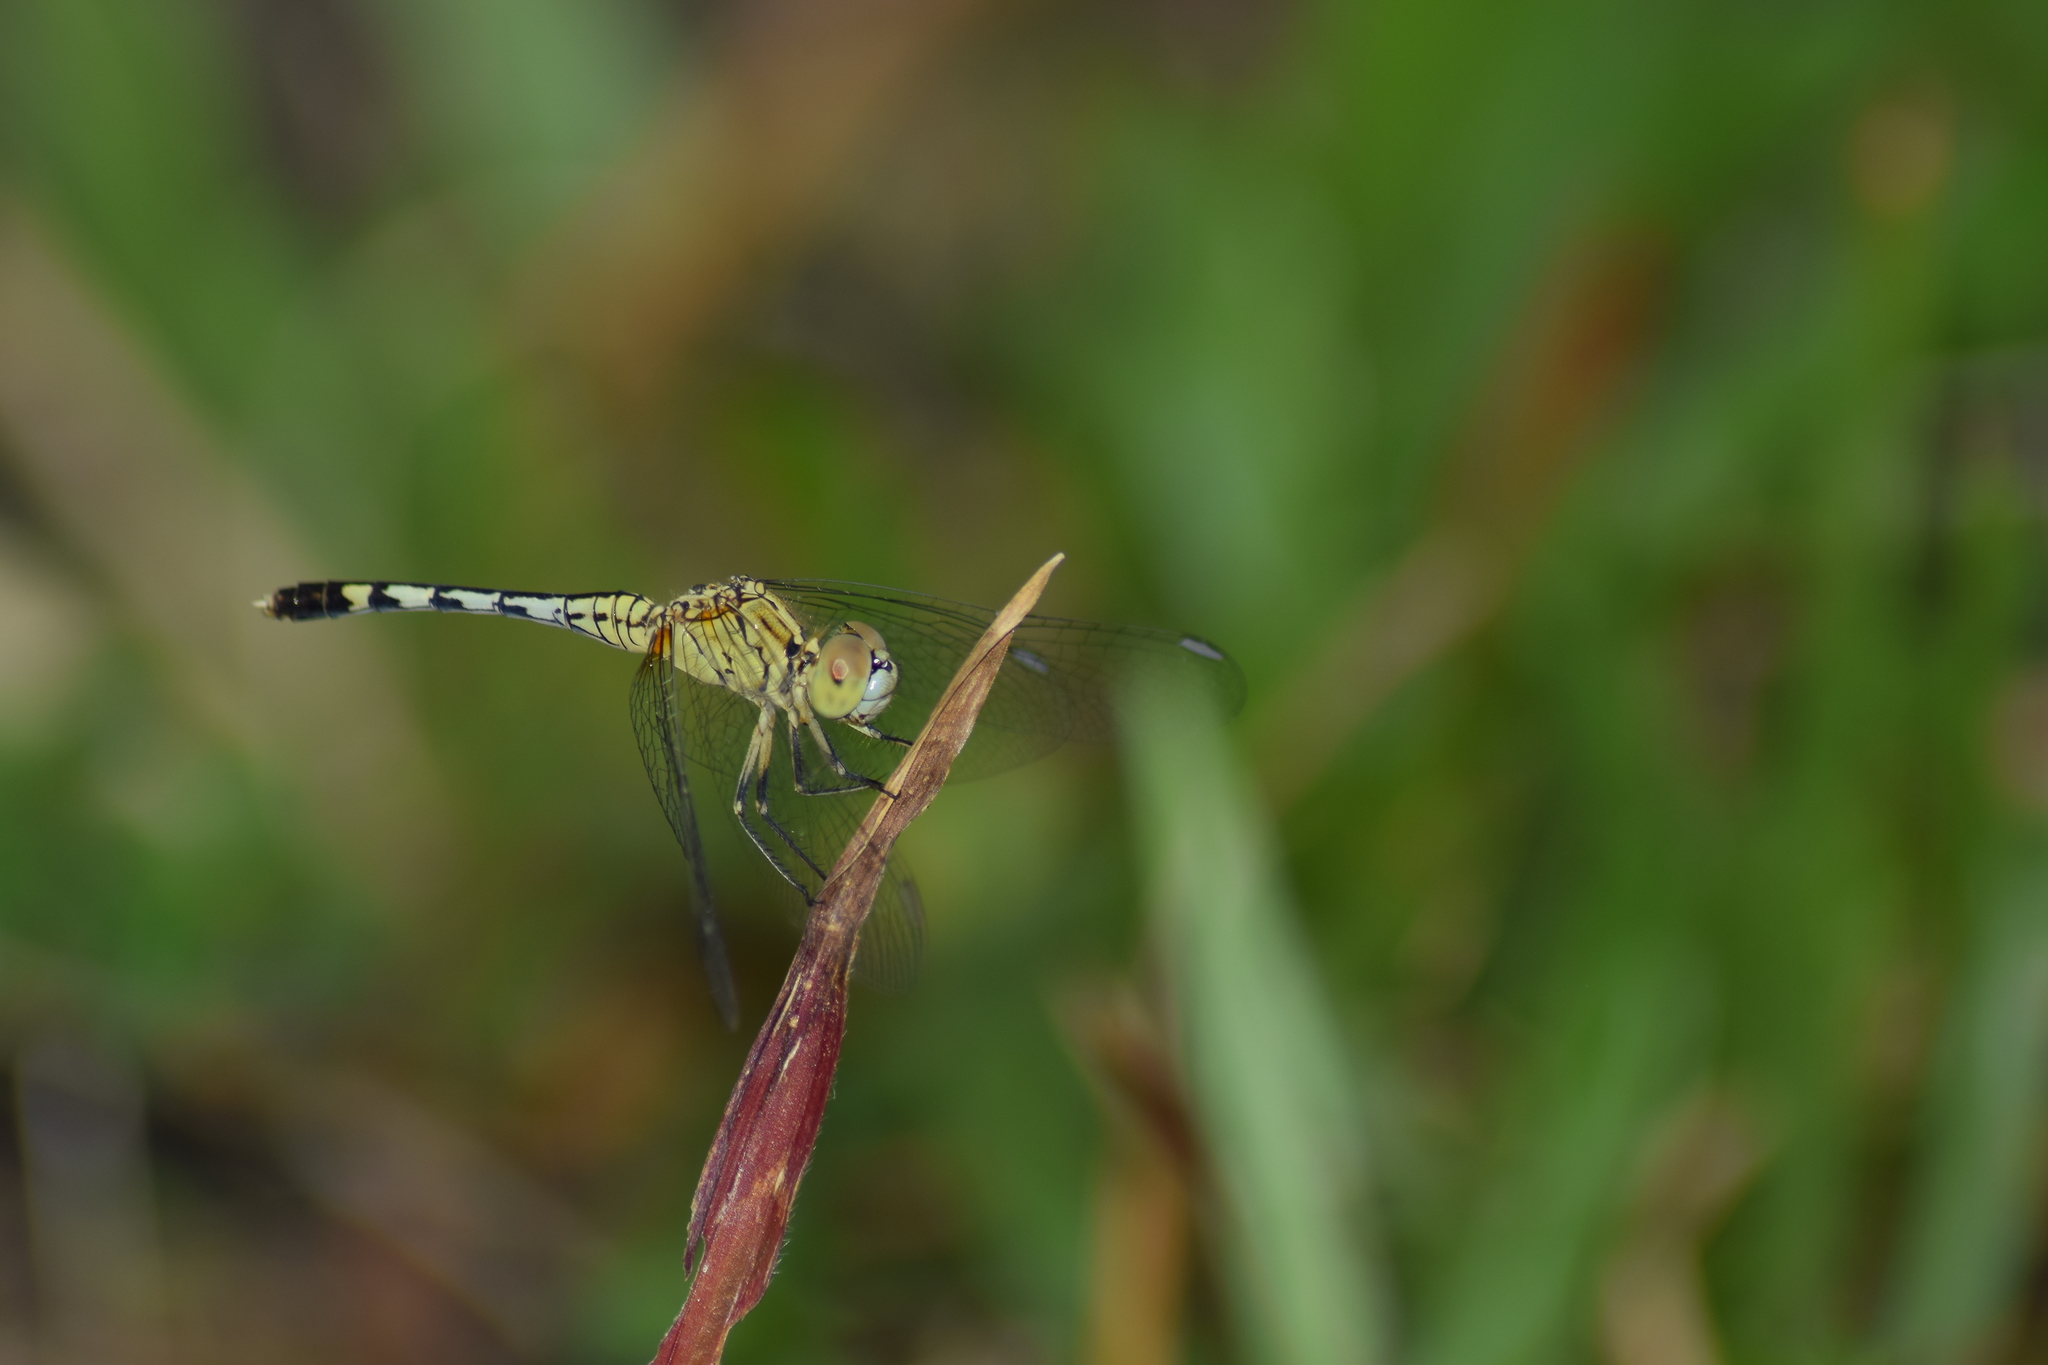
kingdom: Animalia
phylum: Arthropoda
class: Insecta
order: Odonata
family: Libellulidae
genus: Diplacodes
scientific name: Diplacodes trivialis
